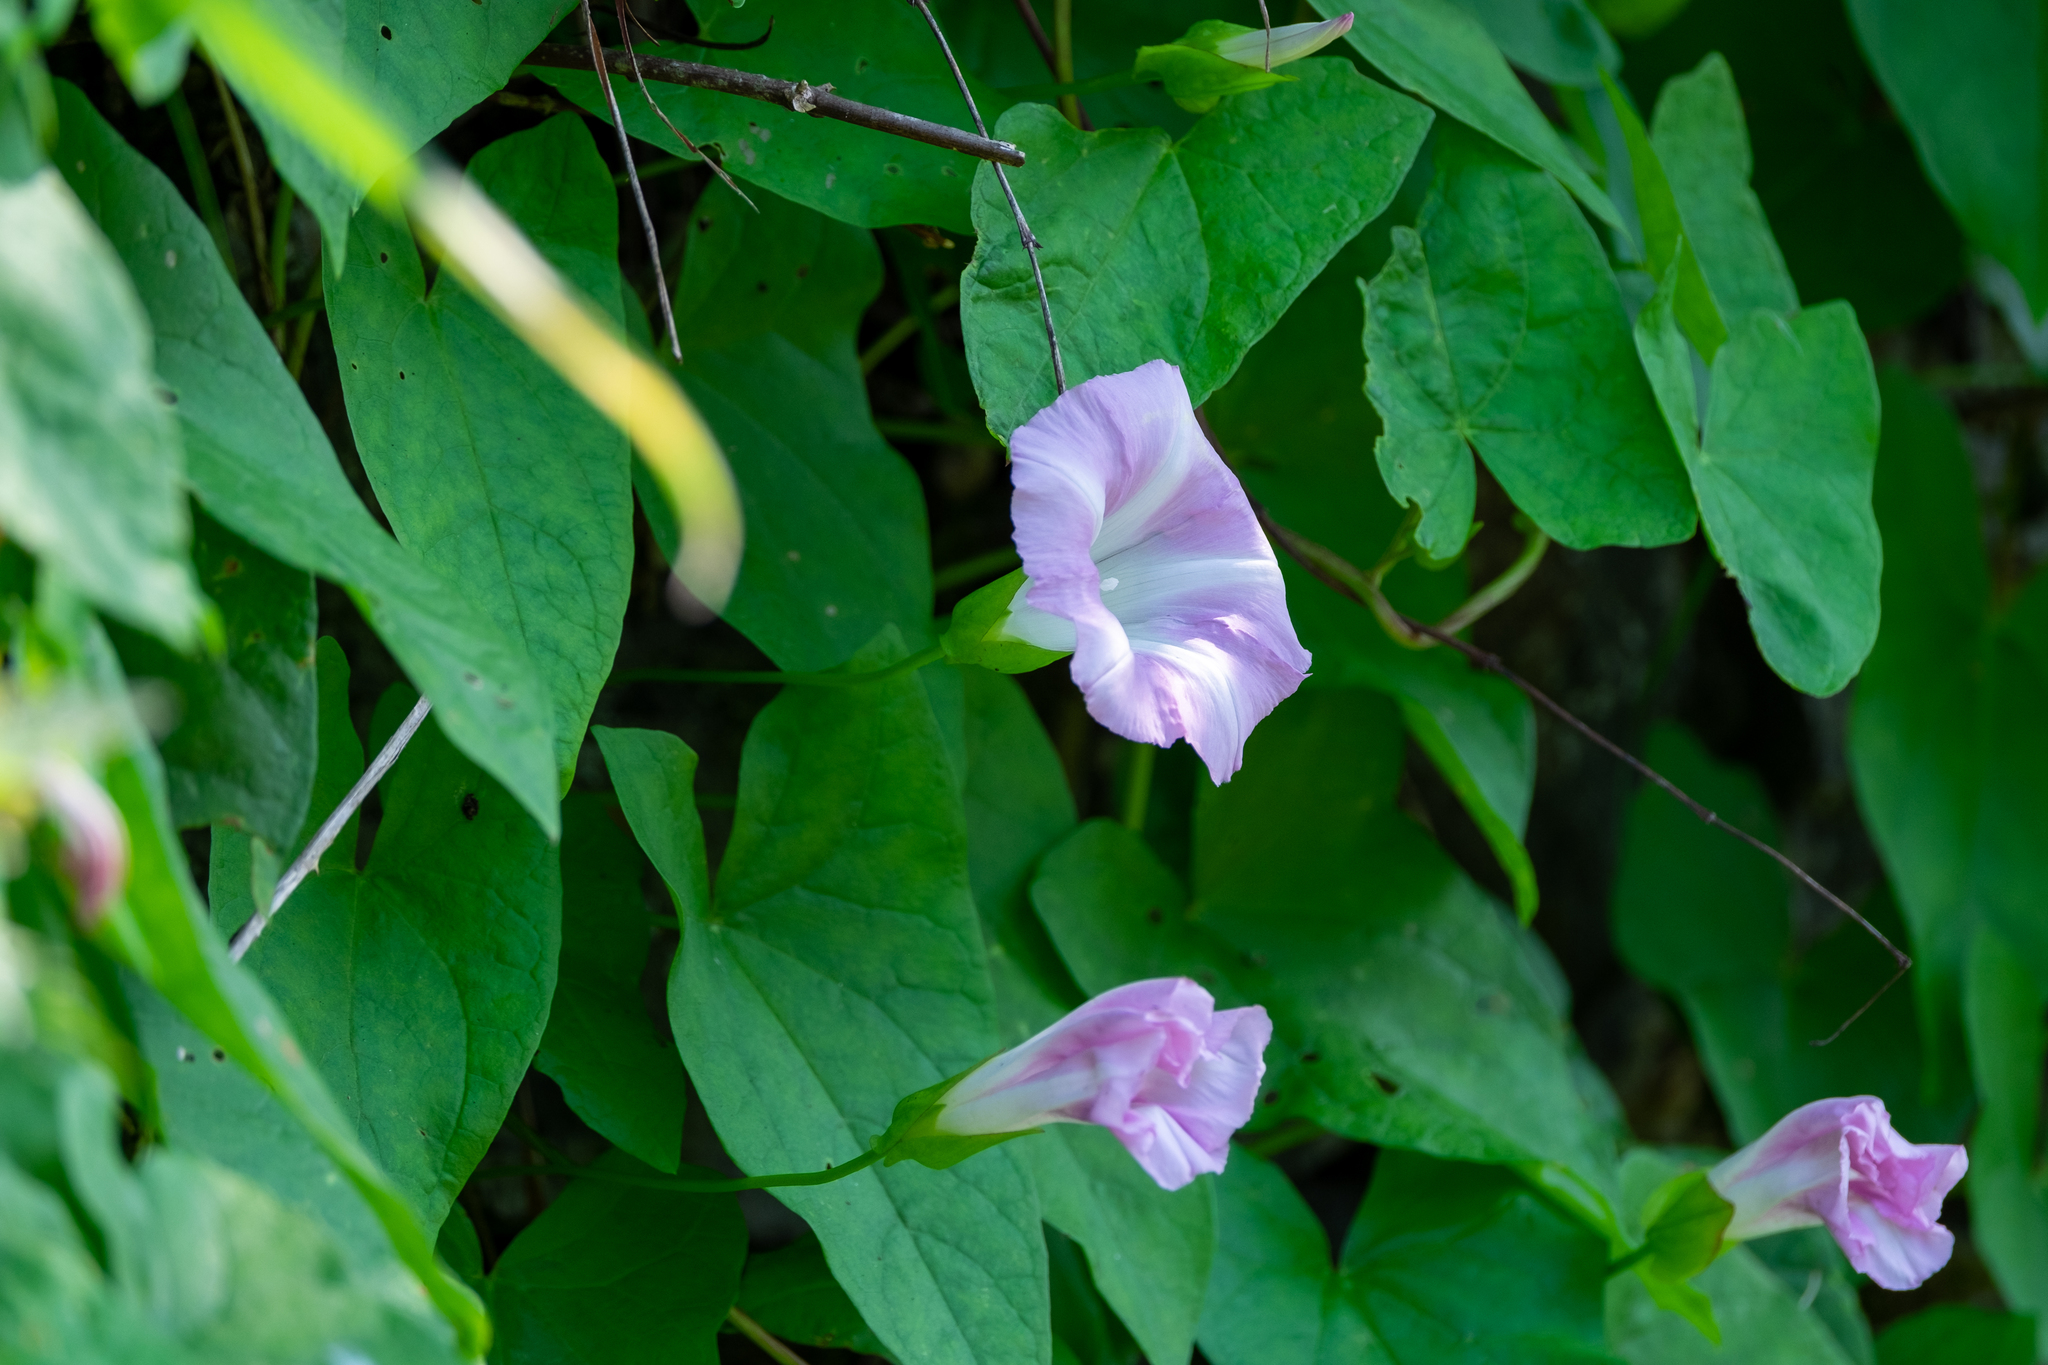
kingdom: Plantae
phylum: Tracheophyta
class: Magnoliopsida
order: Solanales
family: Convolvulaceae
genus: Calystegia
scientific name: Calystegia sepium
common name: Hedge bindweed
